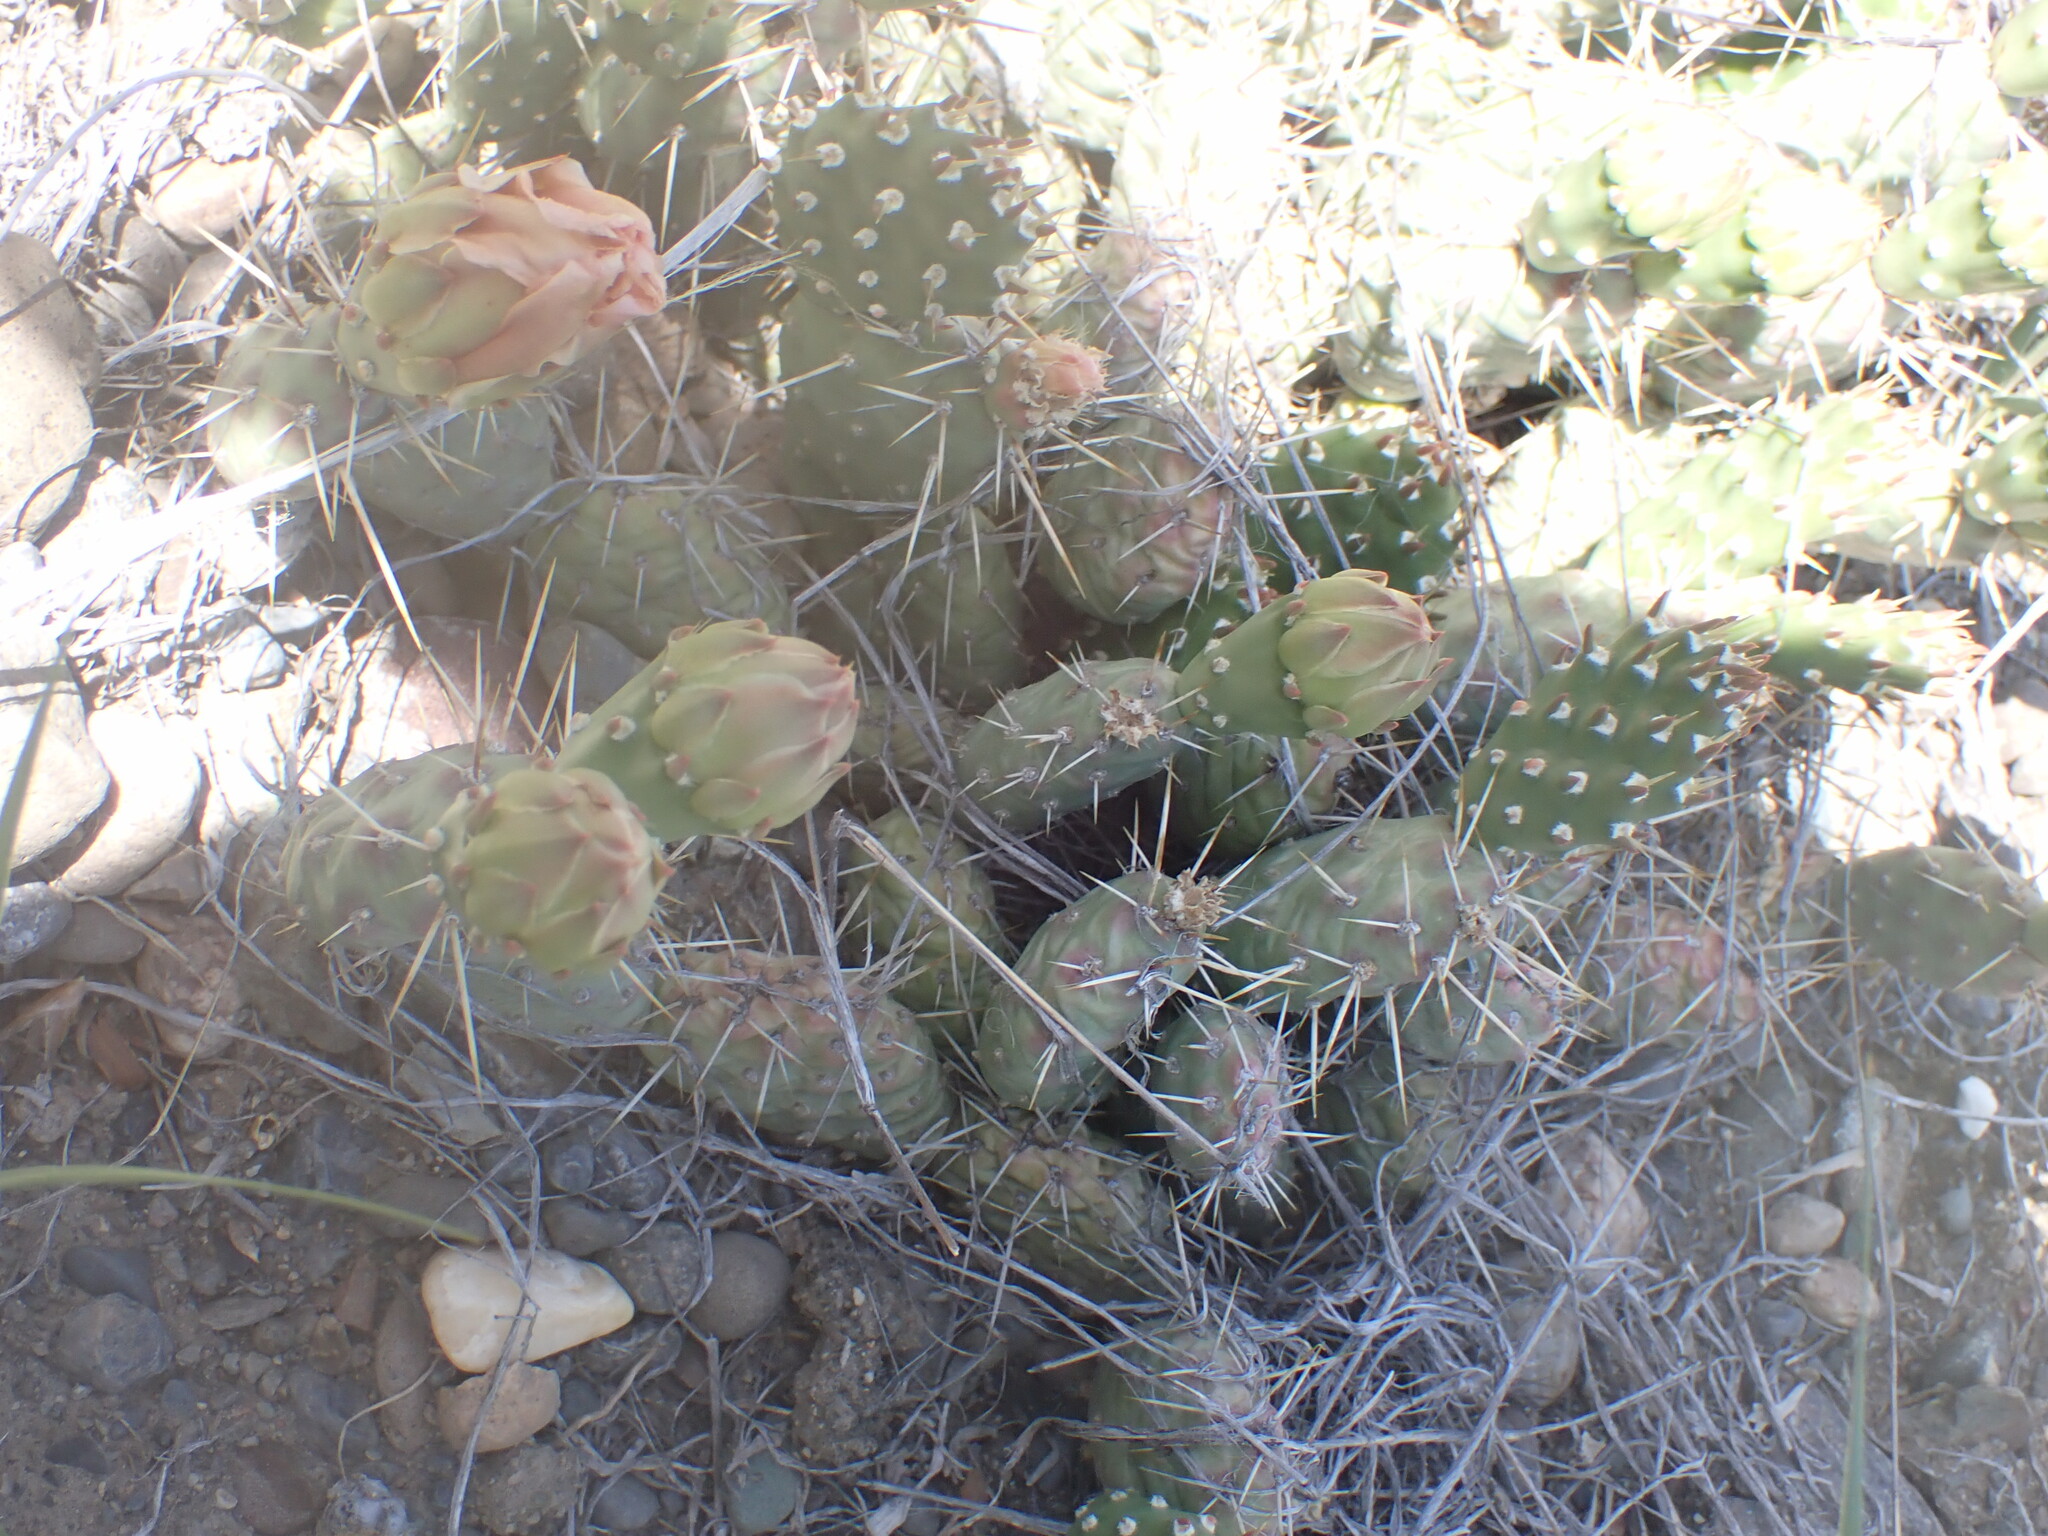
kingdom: Plantae
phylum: Tracheophyta
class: Magnoliopsida
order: Caryophyllales
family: Cactaceae
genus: Opuntia
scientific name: Opuntia fragilis
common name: Brittle cactus
